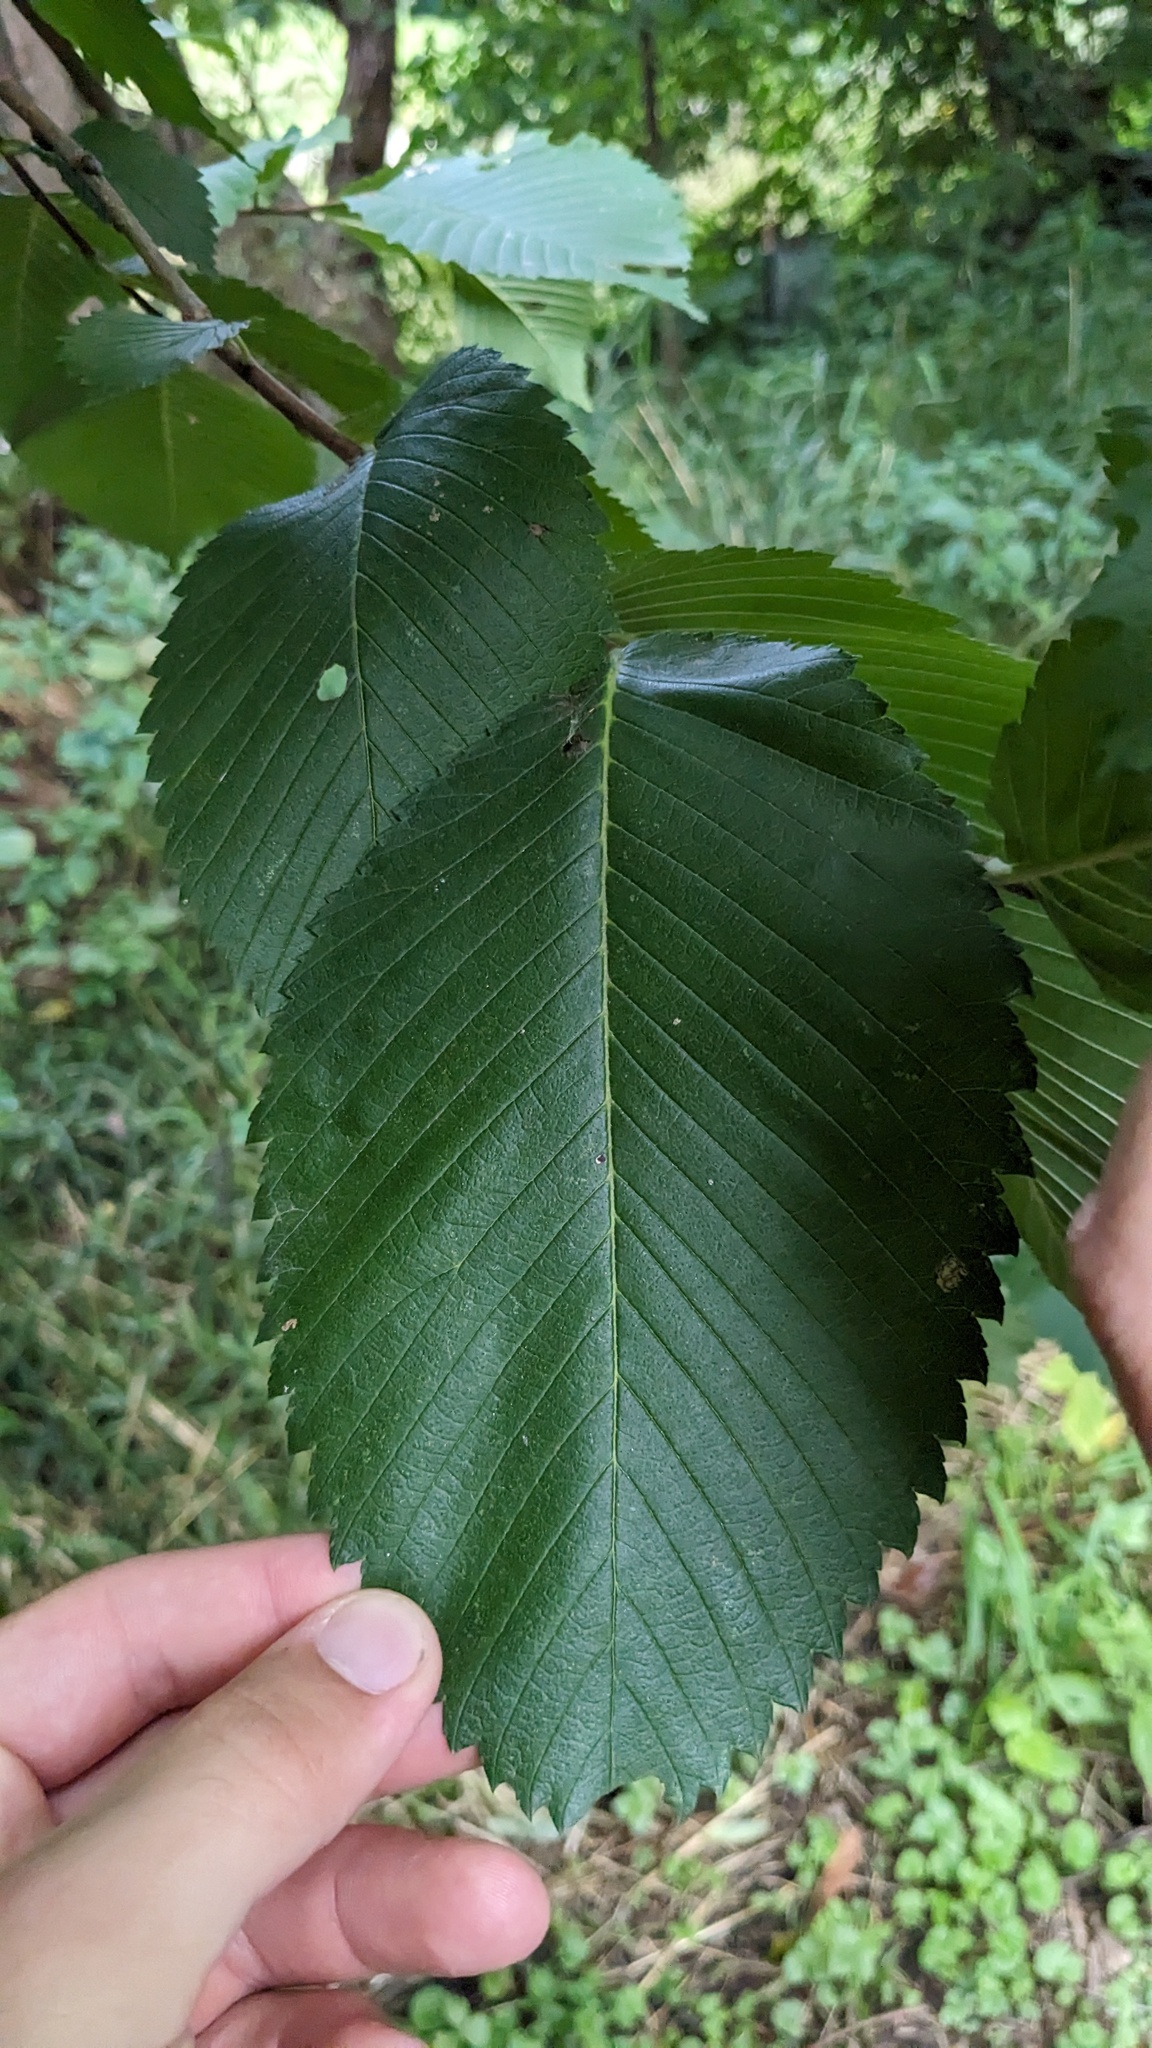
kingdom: Plantae
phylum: Tracheophyta
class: Magnoliopsida
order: Rosales
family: Ulmaceae
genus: Ulmus
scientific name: Ulmus americana
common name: American elm
